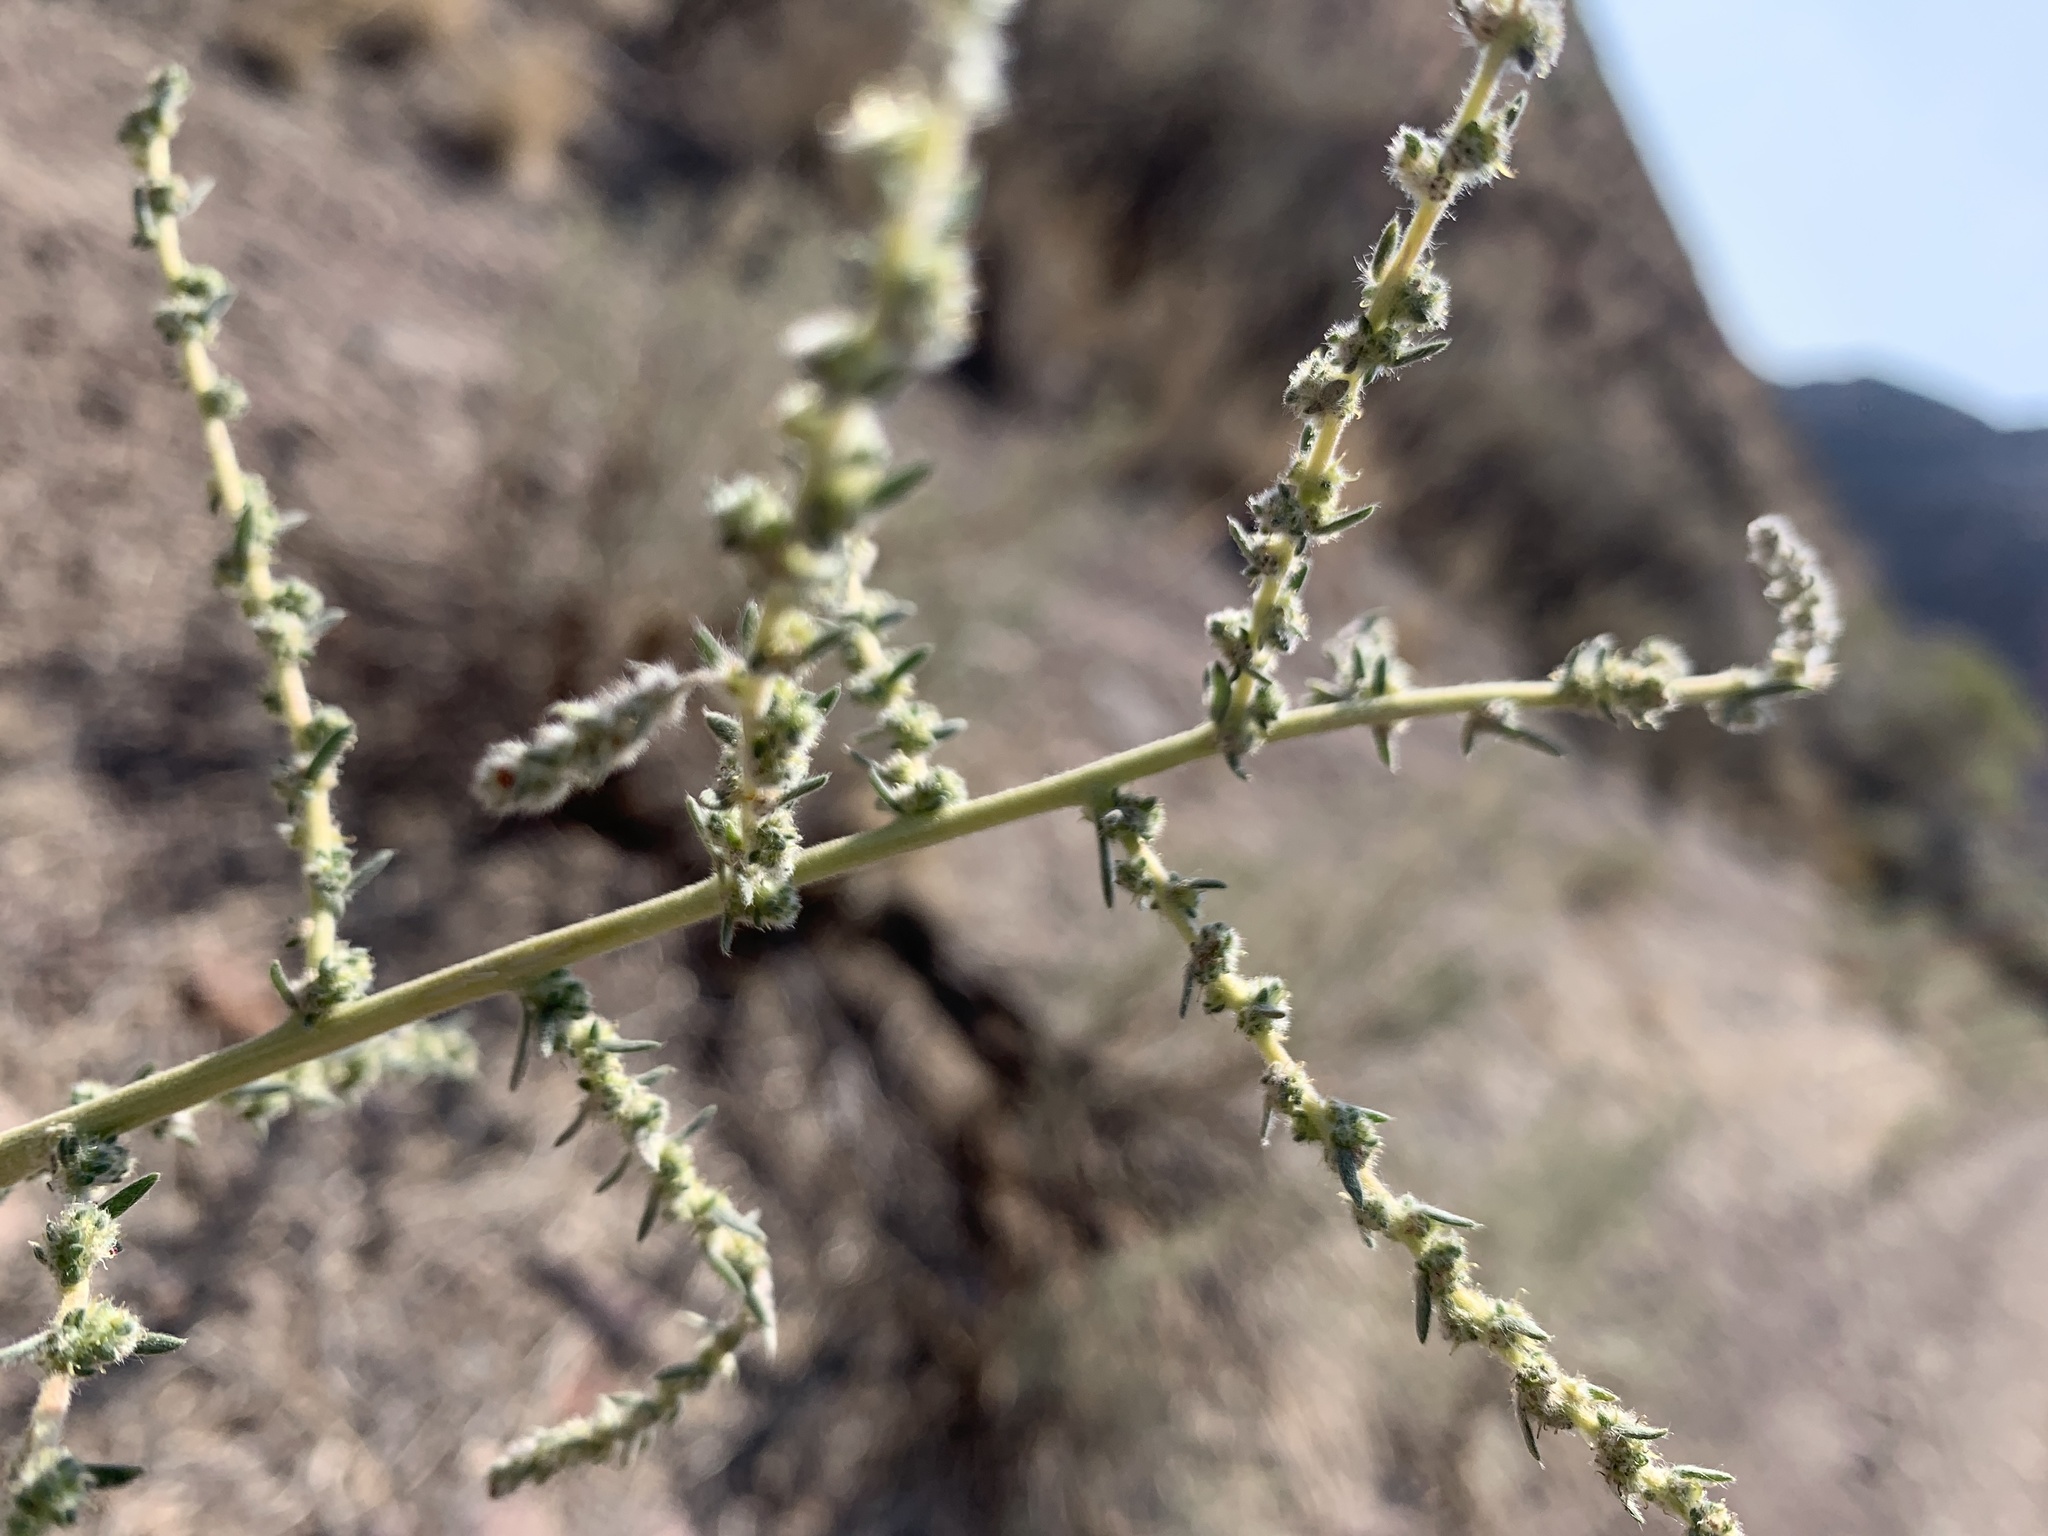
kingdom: Plantae
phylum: Tracheophyta
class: Magnoliopsida
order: Caryophyllales
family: Amaranthaceae
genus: Bassia
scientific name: Bassia hyssopifolia
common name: Fivehorn smotherweed
